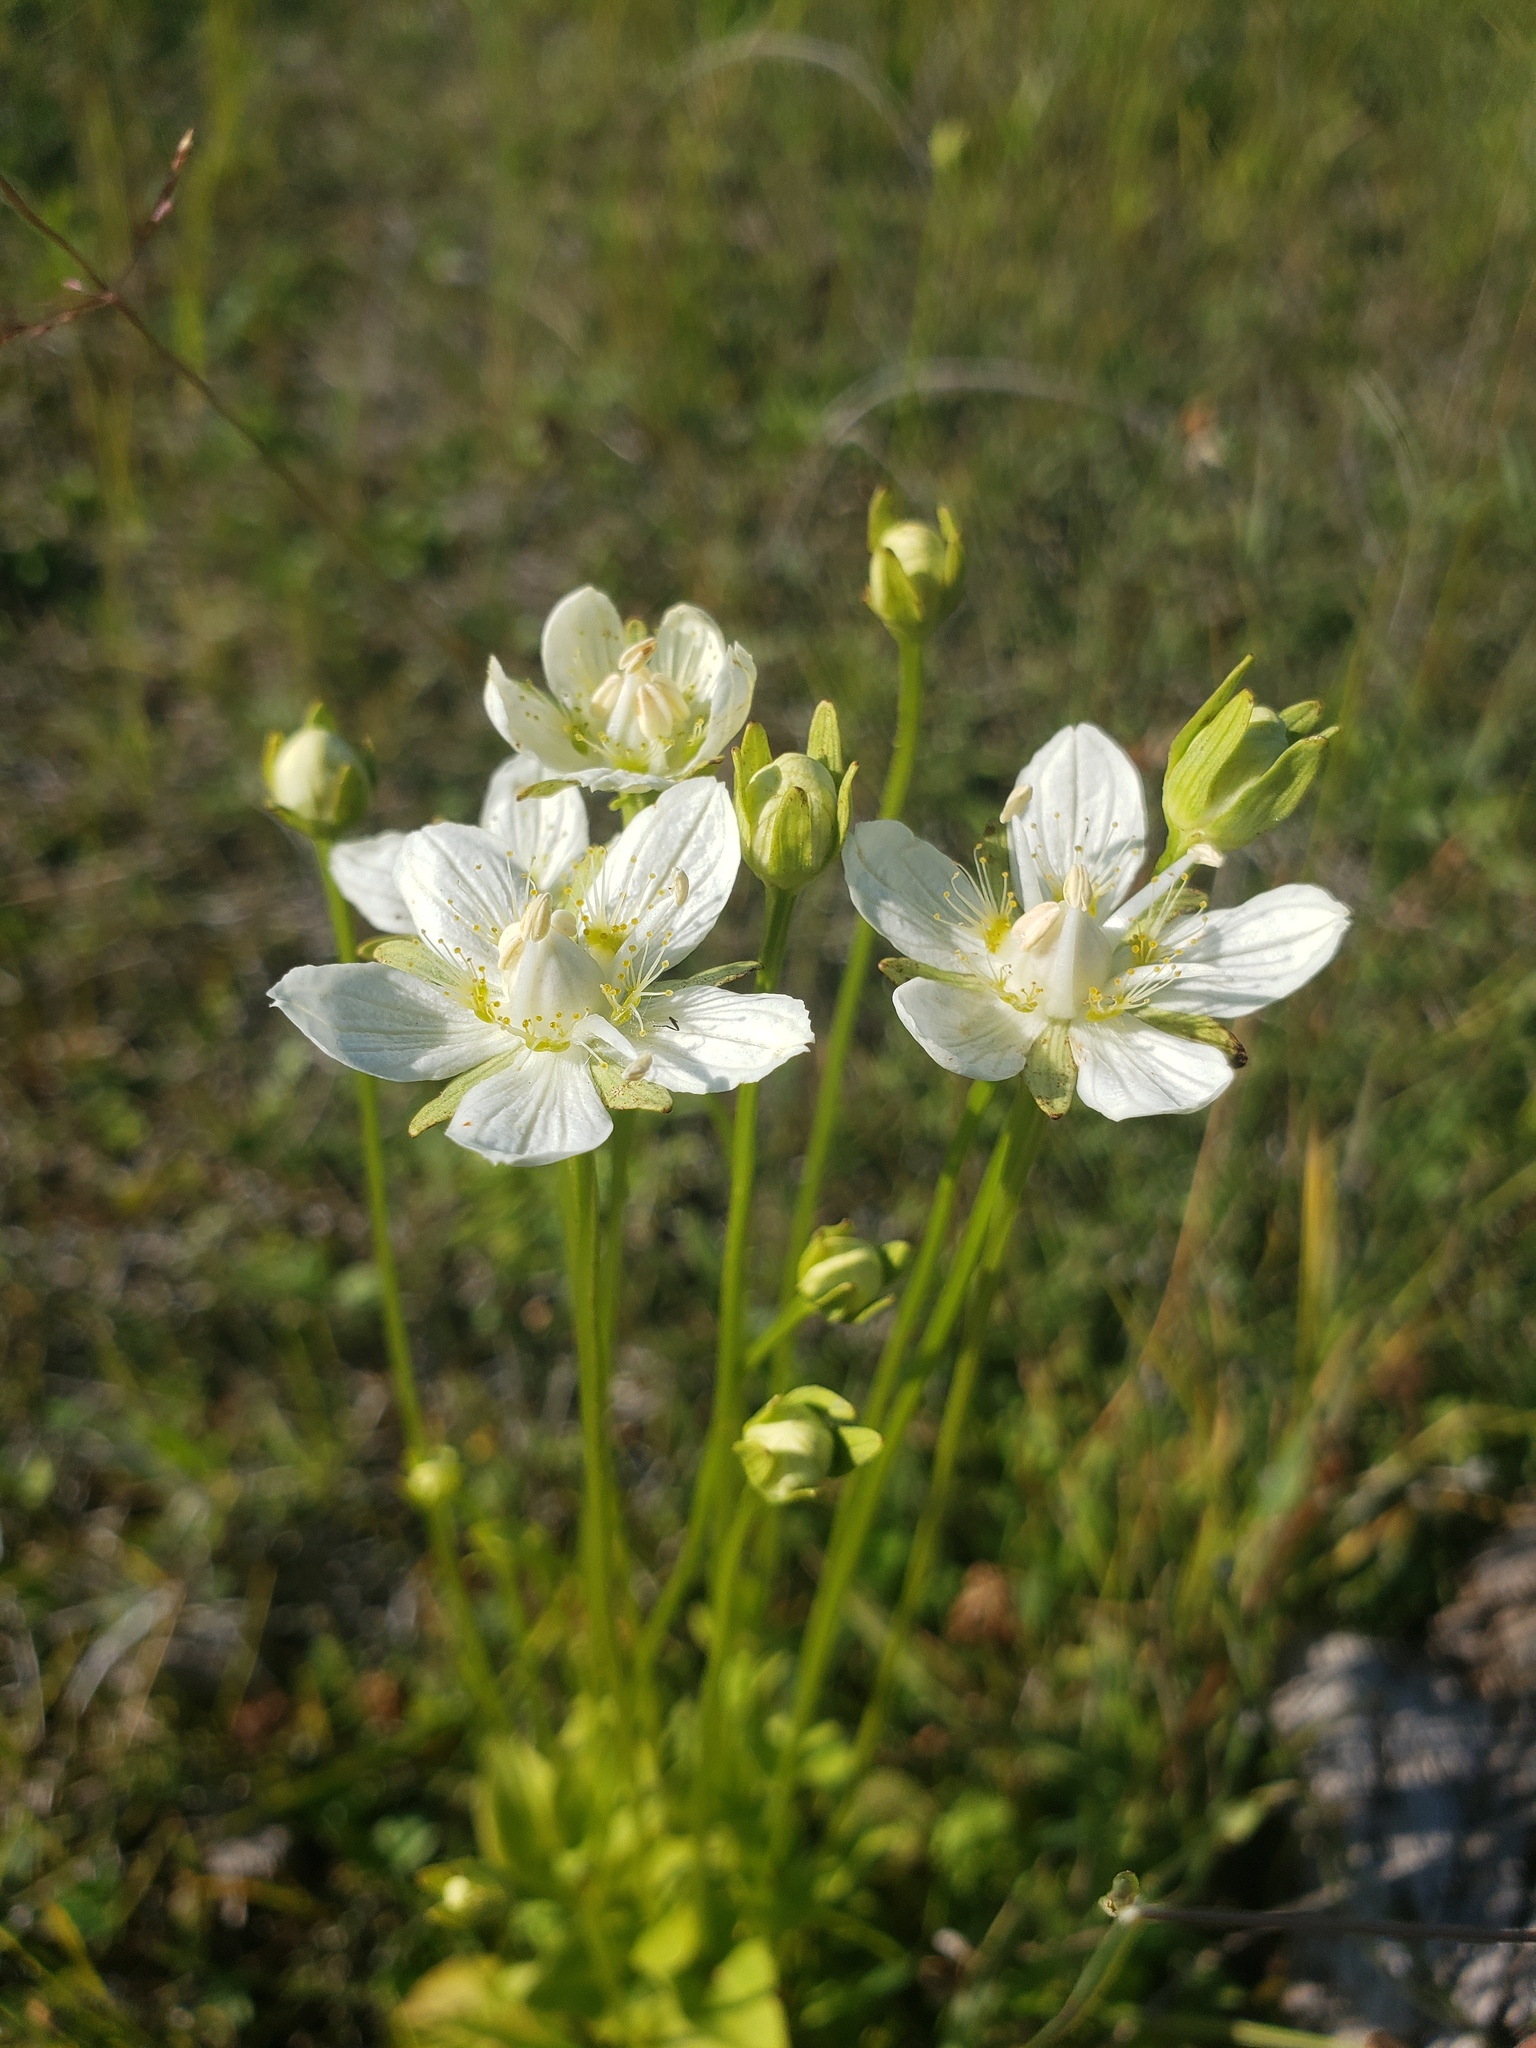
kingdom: Plantae
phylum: Tracheophyta
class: Magnoliopsida
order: Celastrales
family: Parnassiaceae
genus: Parnassia
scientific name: Parnassia palustris
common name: Grass-of-parnassus
